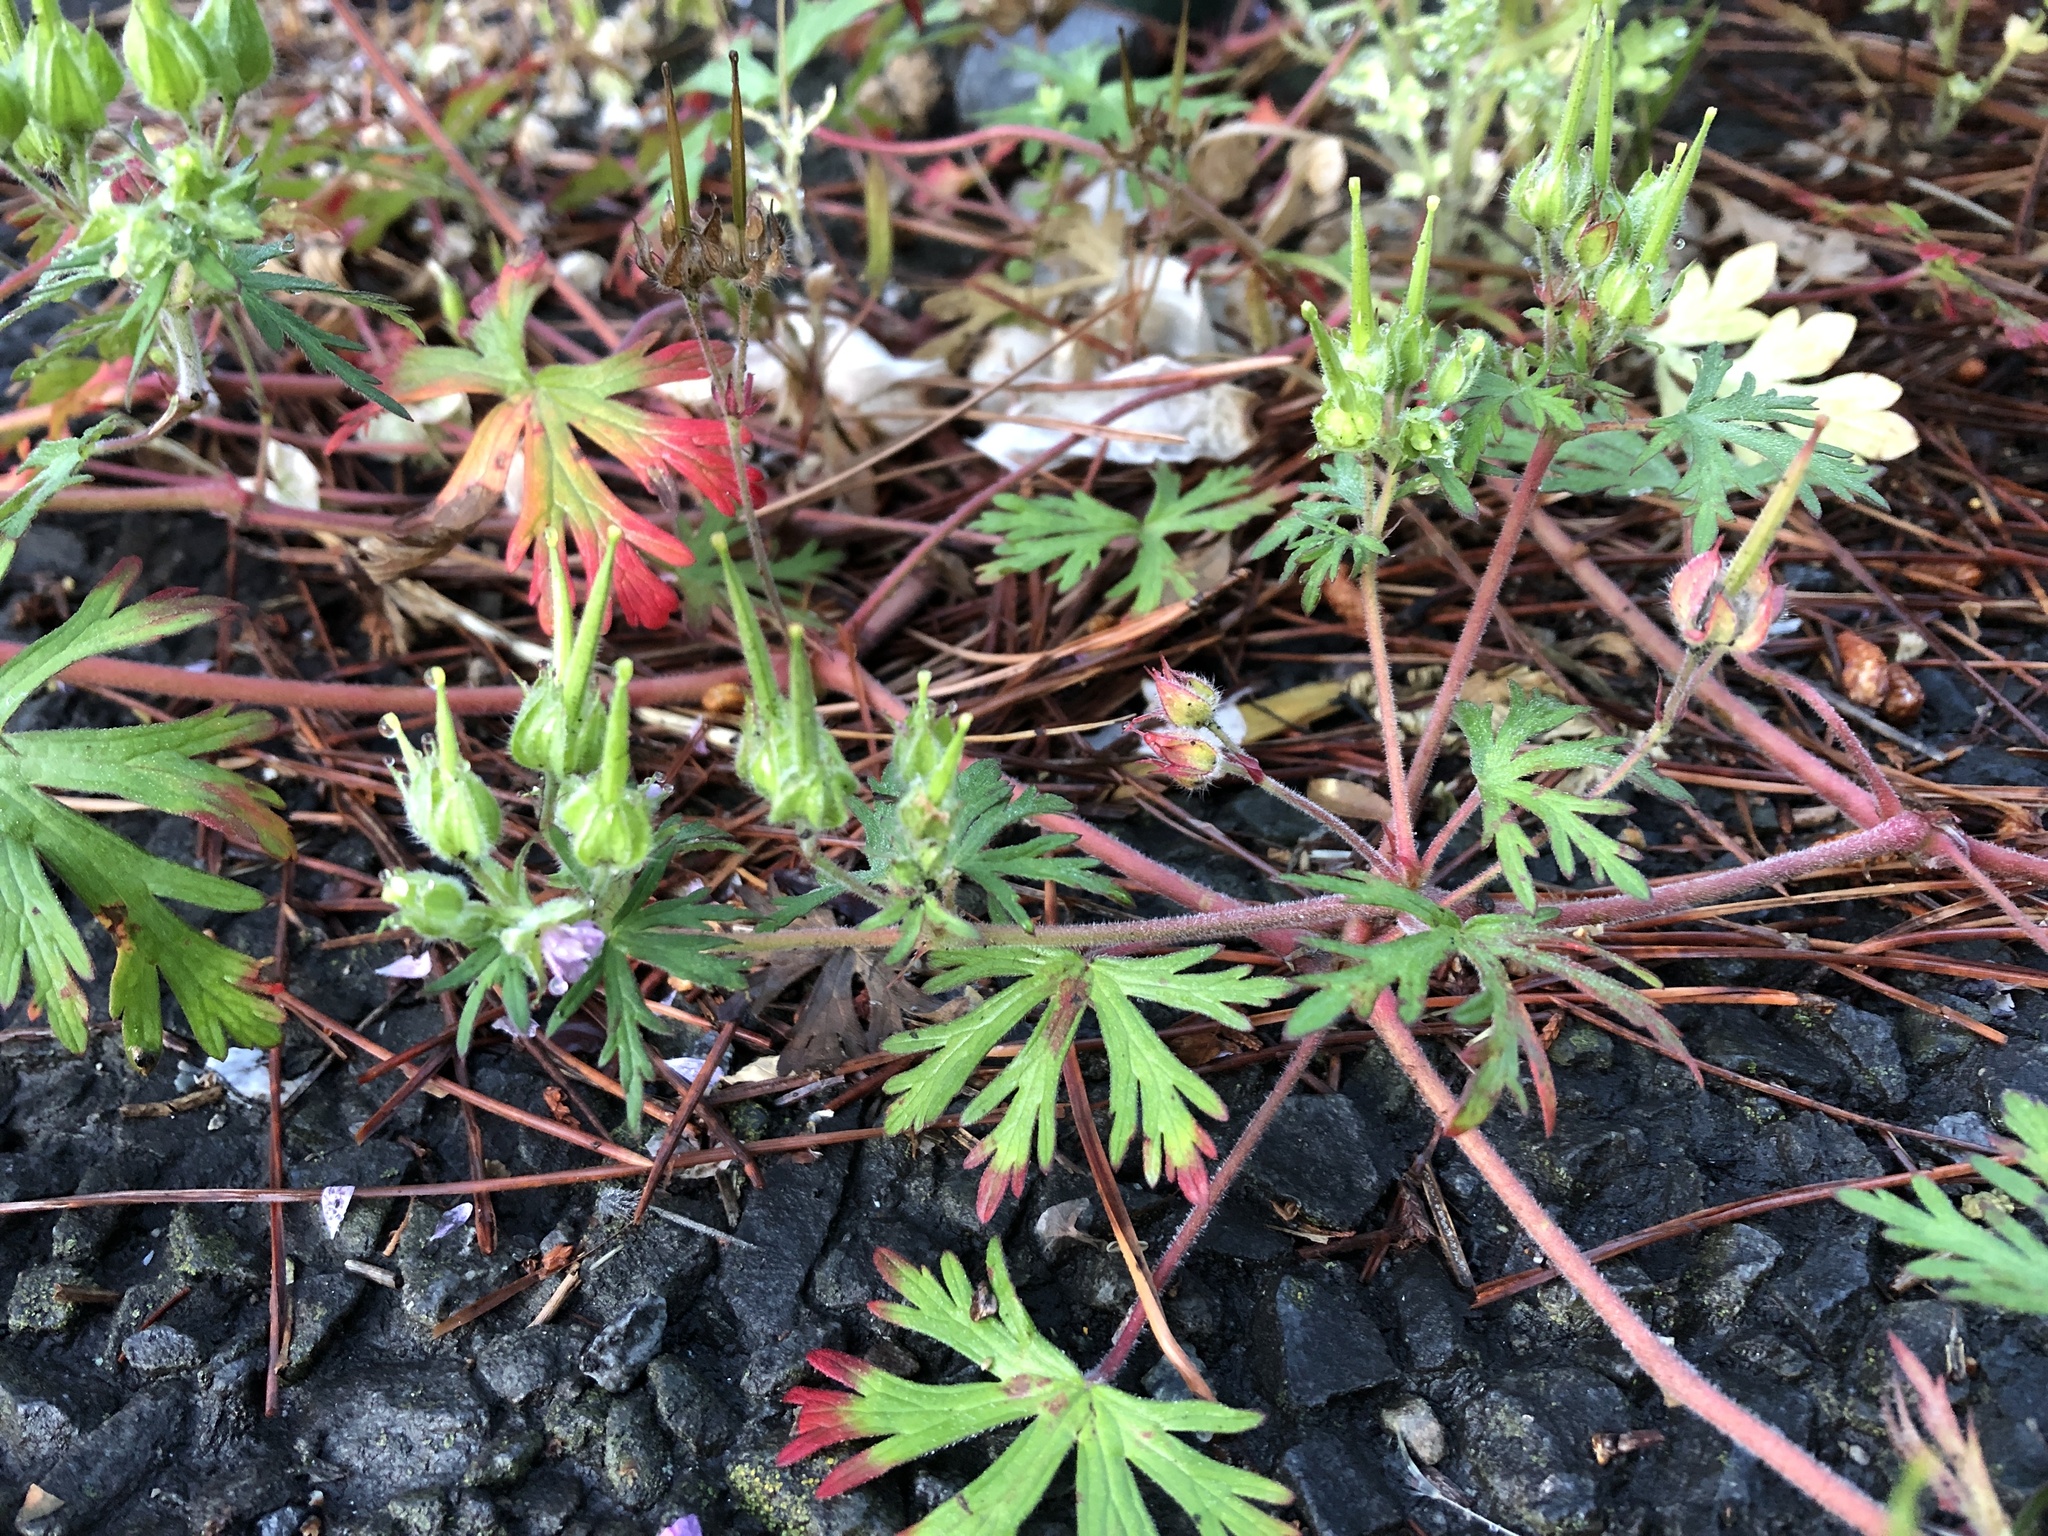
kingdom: Plantae
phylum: Tracheophyta
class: Magnoliopsida
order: Geraniales
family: Geraniaceae
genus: Geranium
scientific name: Geranium carolinianum
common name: Carolina crane's-bill
